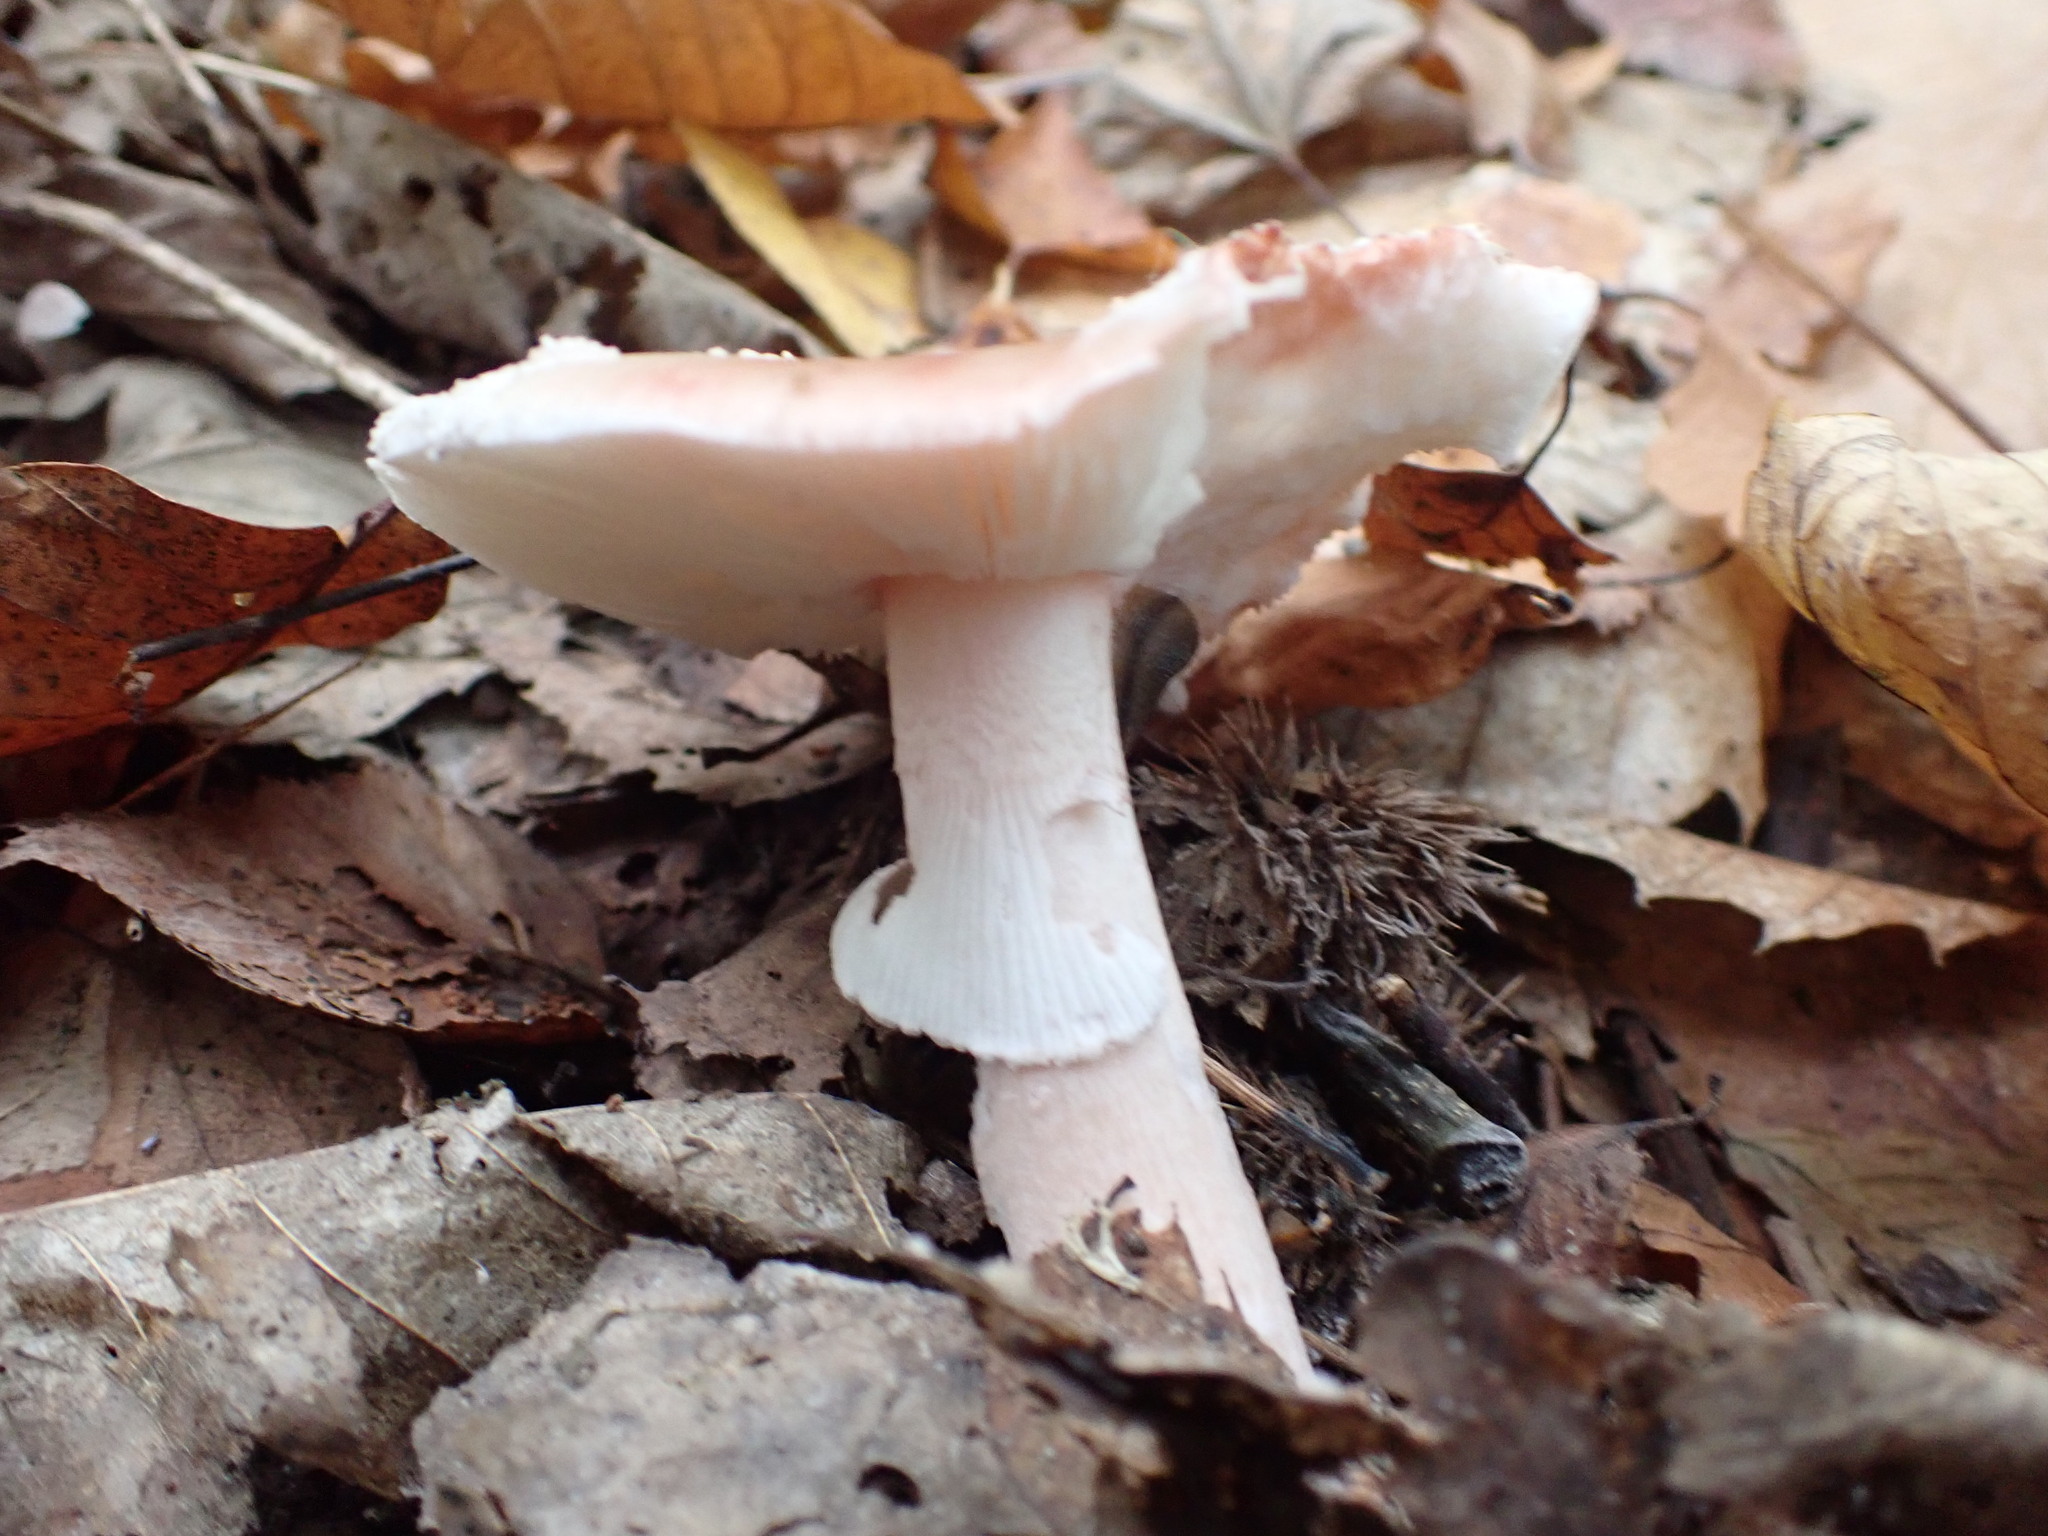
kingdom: Fungi
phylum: Basidiomycota
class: Agaricomycetes
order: Agaricales
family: Amanitaceae
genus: Amanita
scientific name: Amanita rubescens
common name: Blusher
